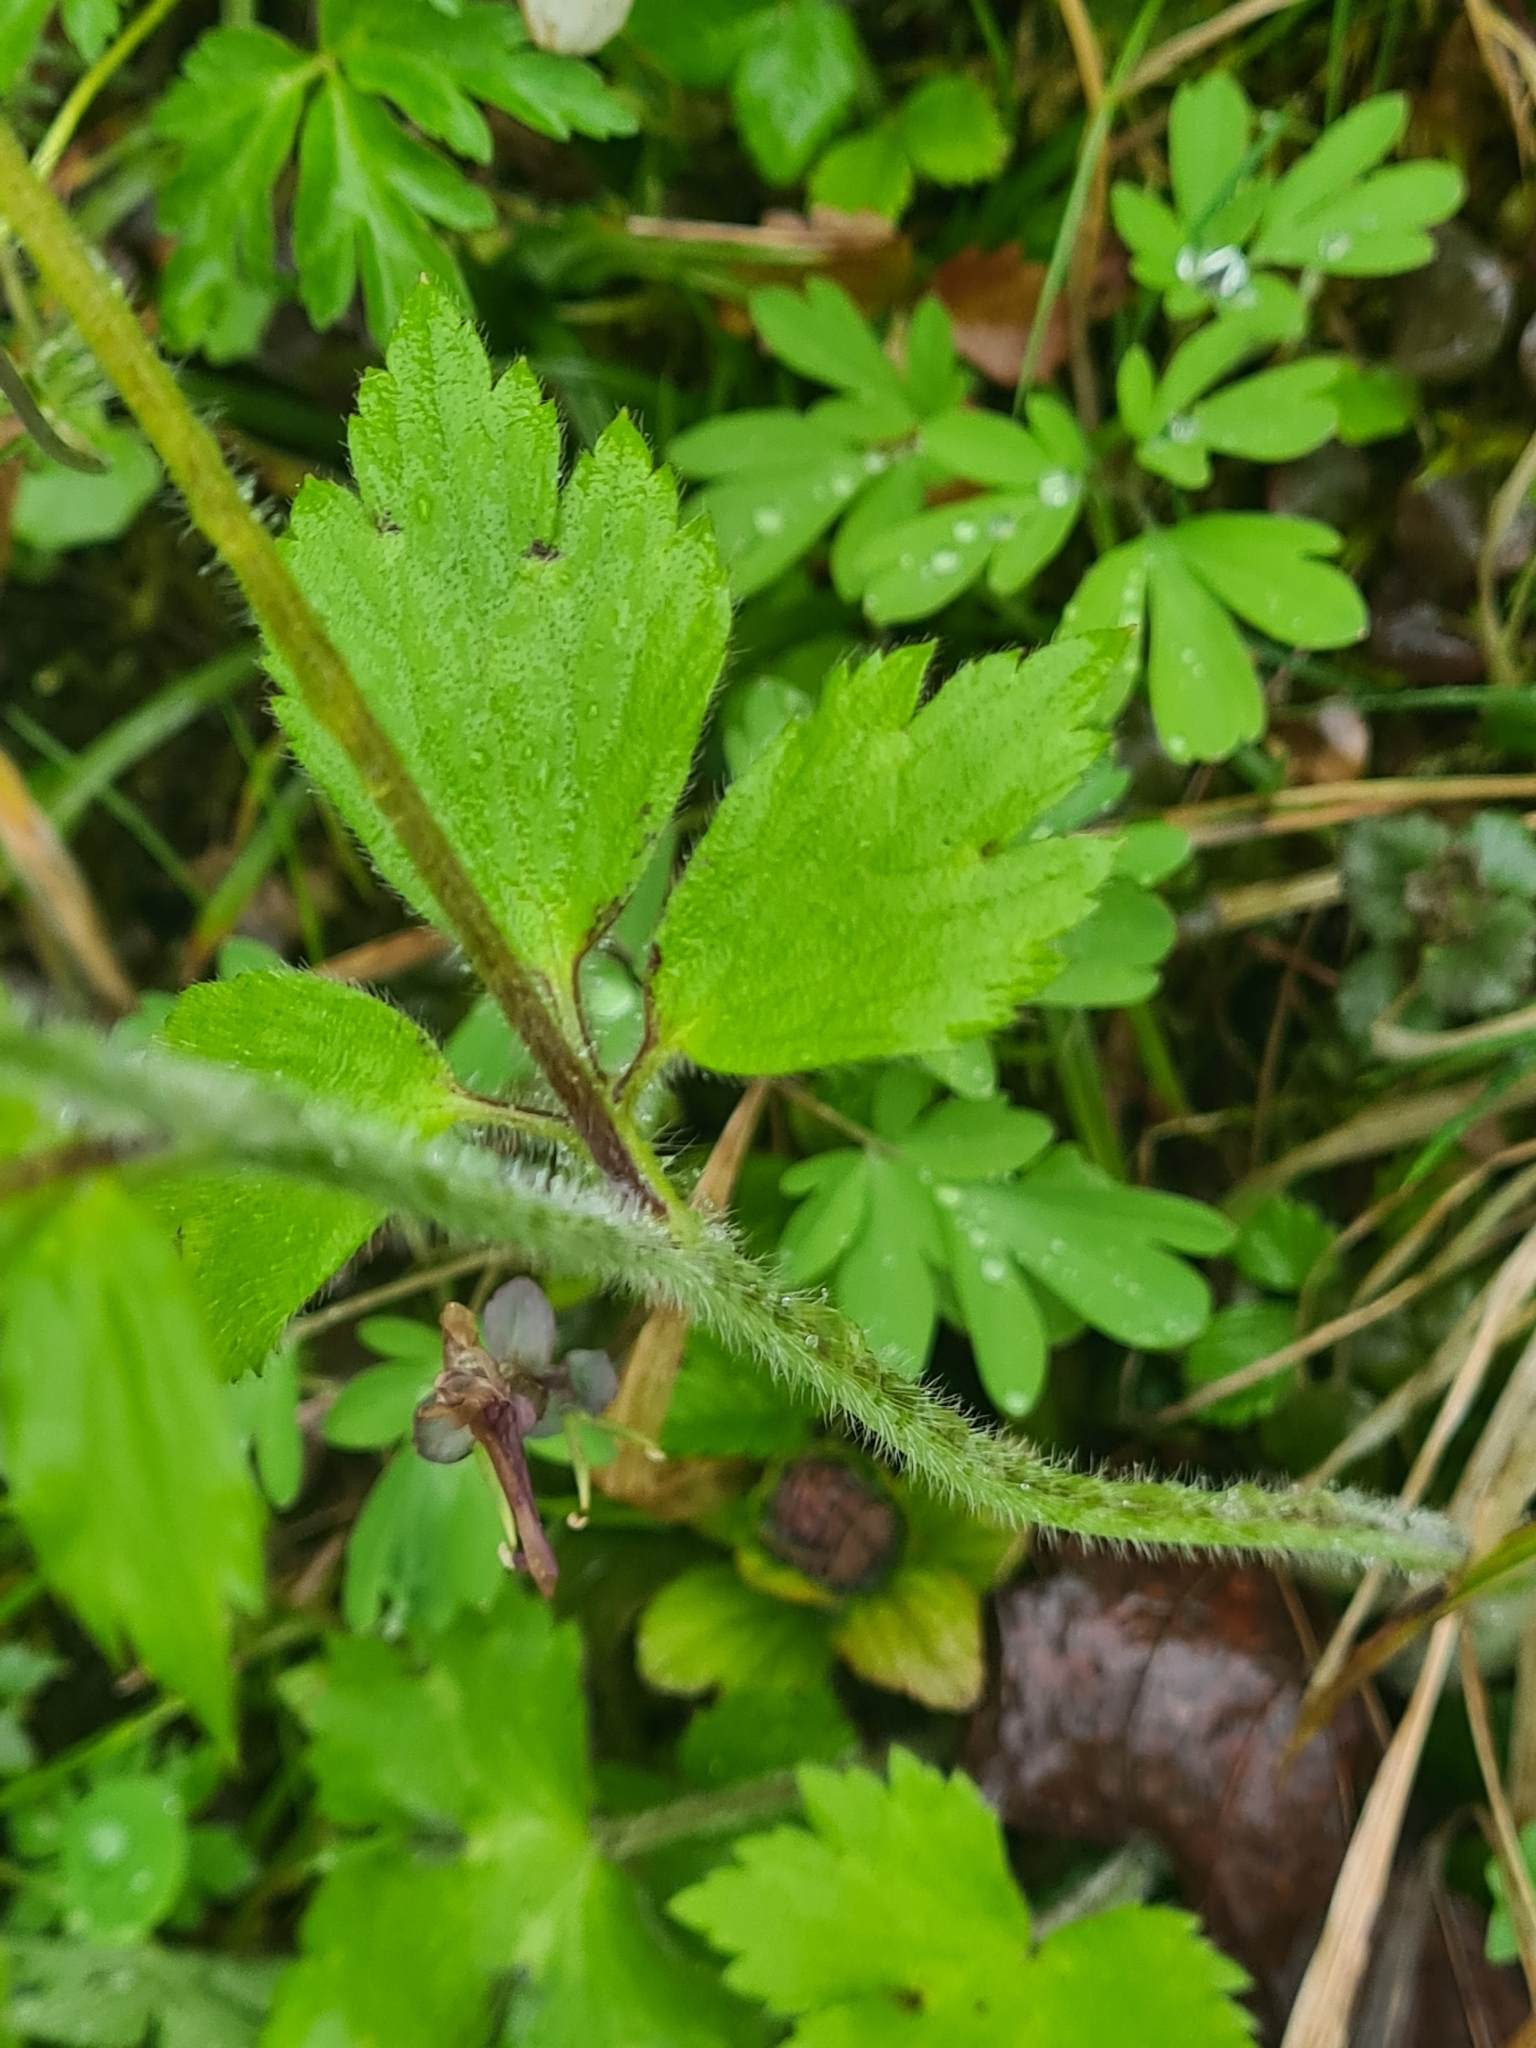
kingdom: Plantae
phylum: Tracheophyta
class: Magnoliopsida
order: Ranunculales
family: Ranunculaceae
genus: Ranunculus
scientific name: Ranunculus lanuginosus
